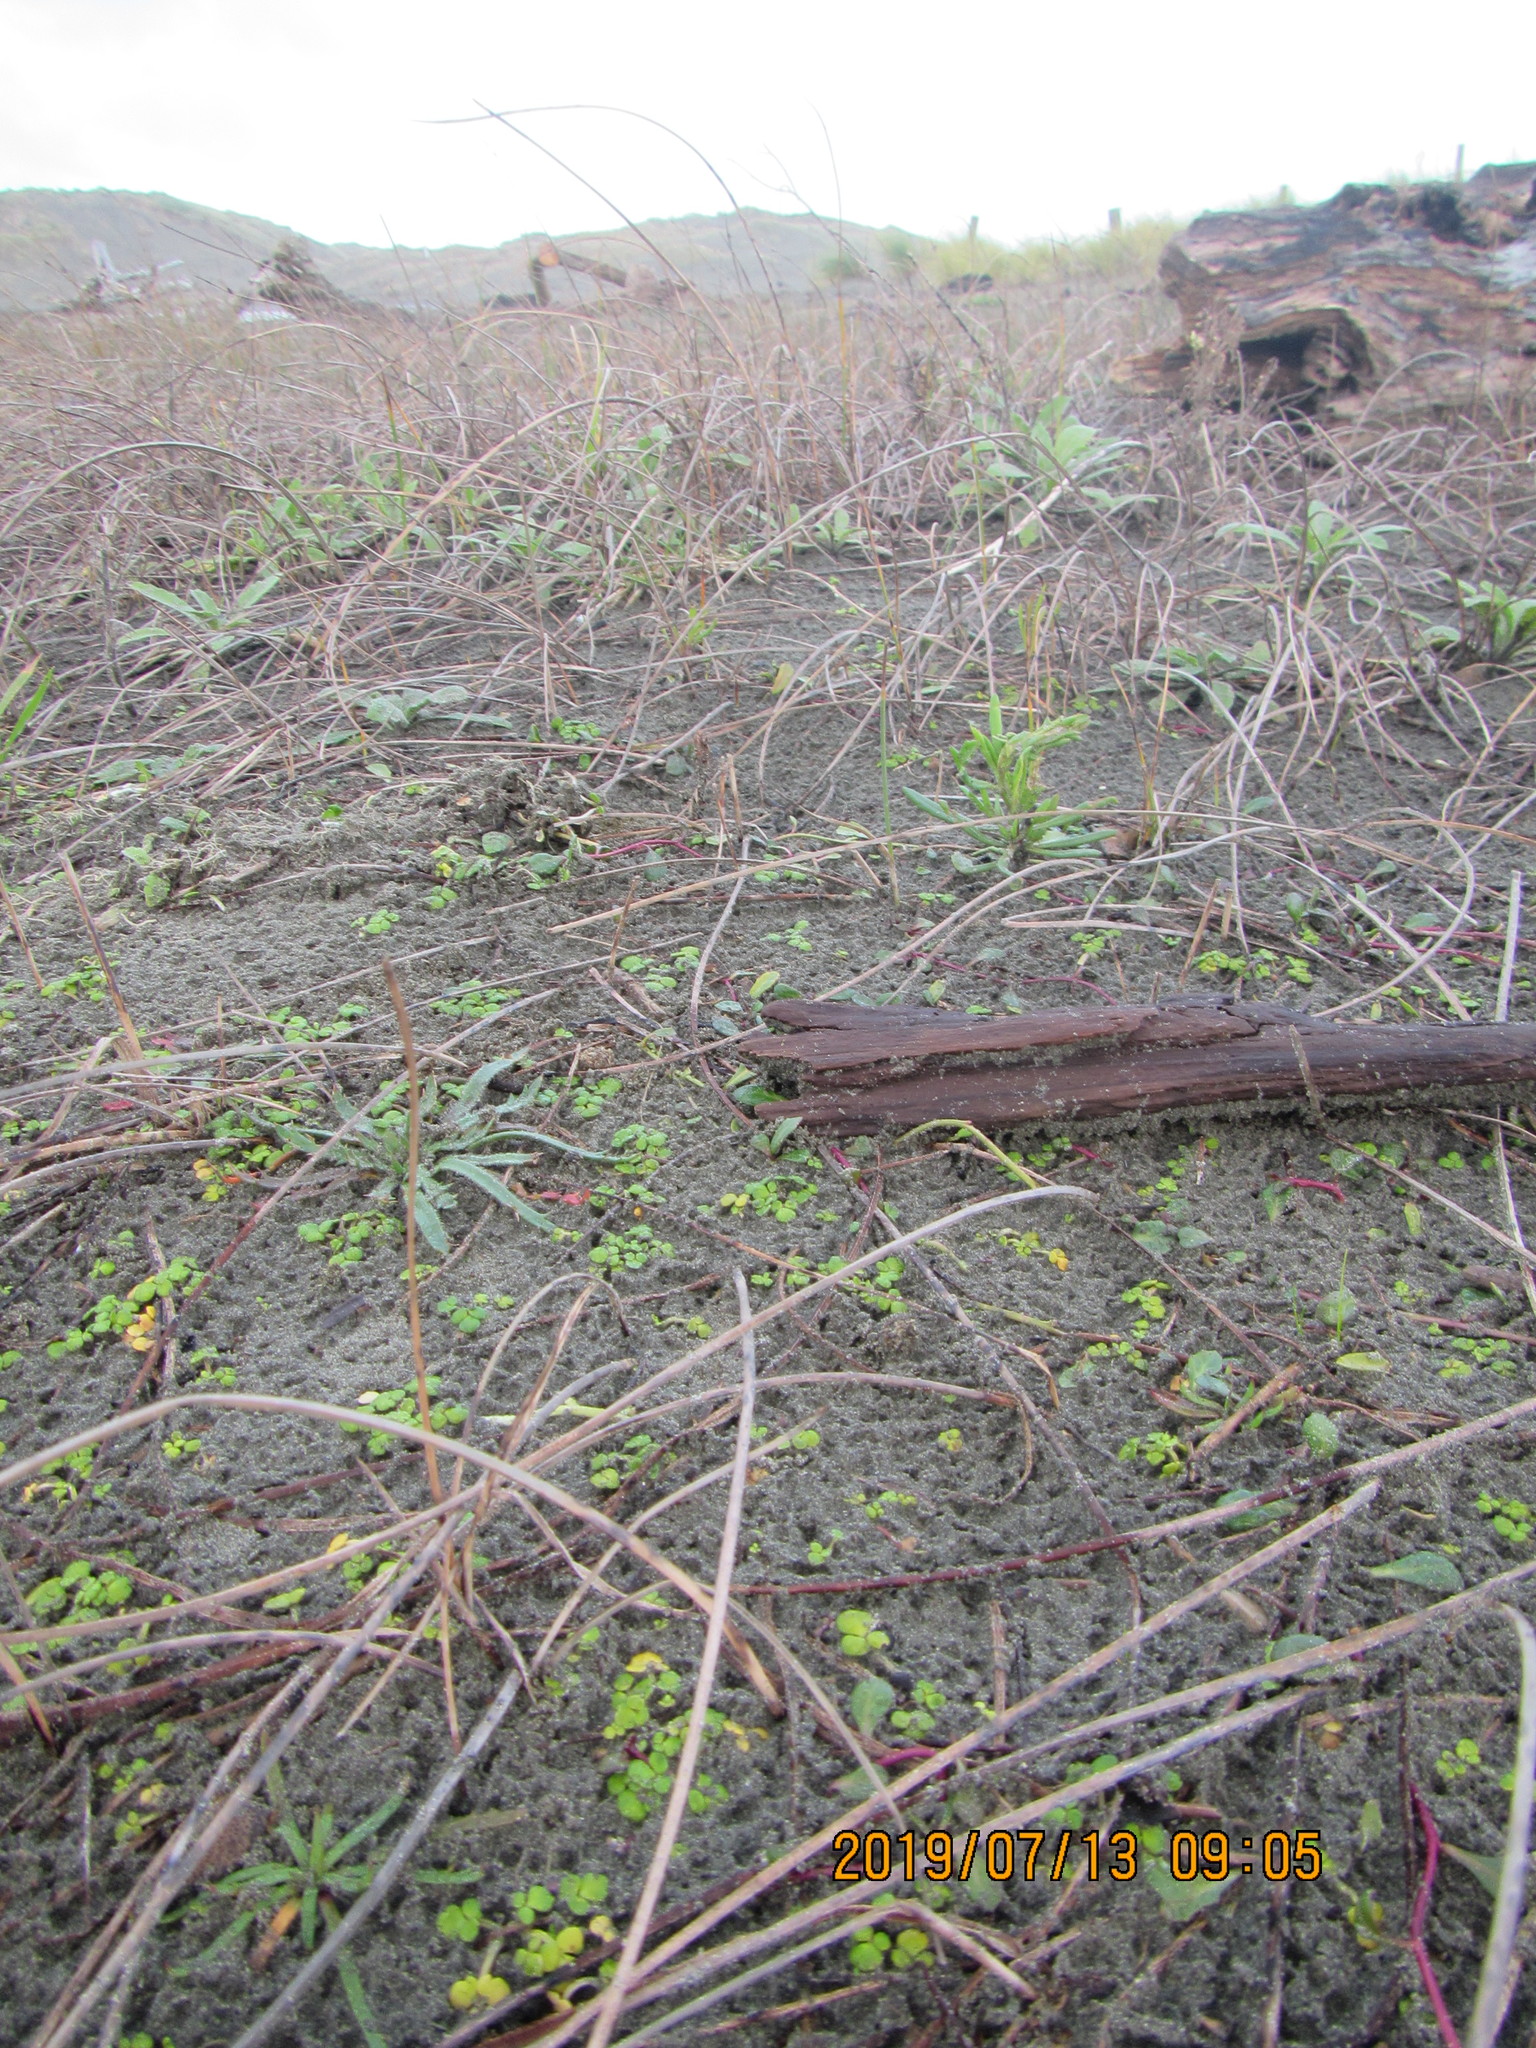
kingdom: Plantae
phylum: Tracheophyta
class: Magnoliopsida
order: Lamiales
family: Plantaginaceae
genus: Plantago
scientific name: Plantago coronopus
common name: Buck's-horn plantain
